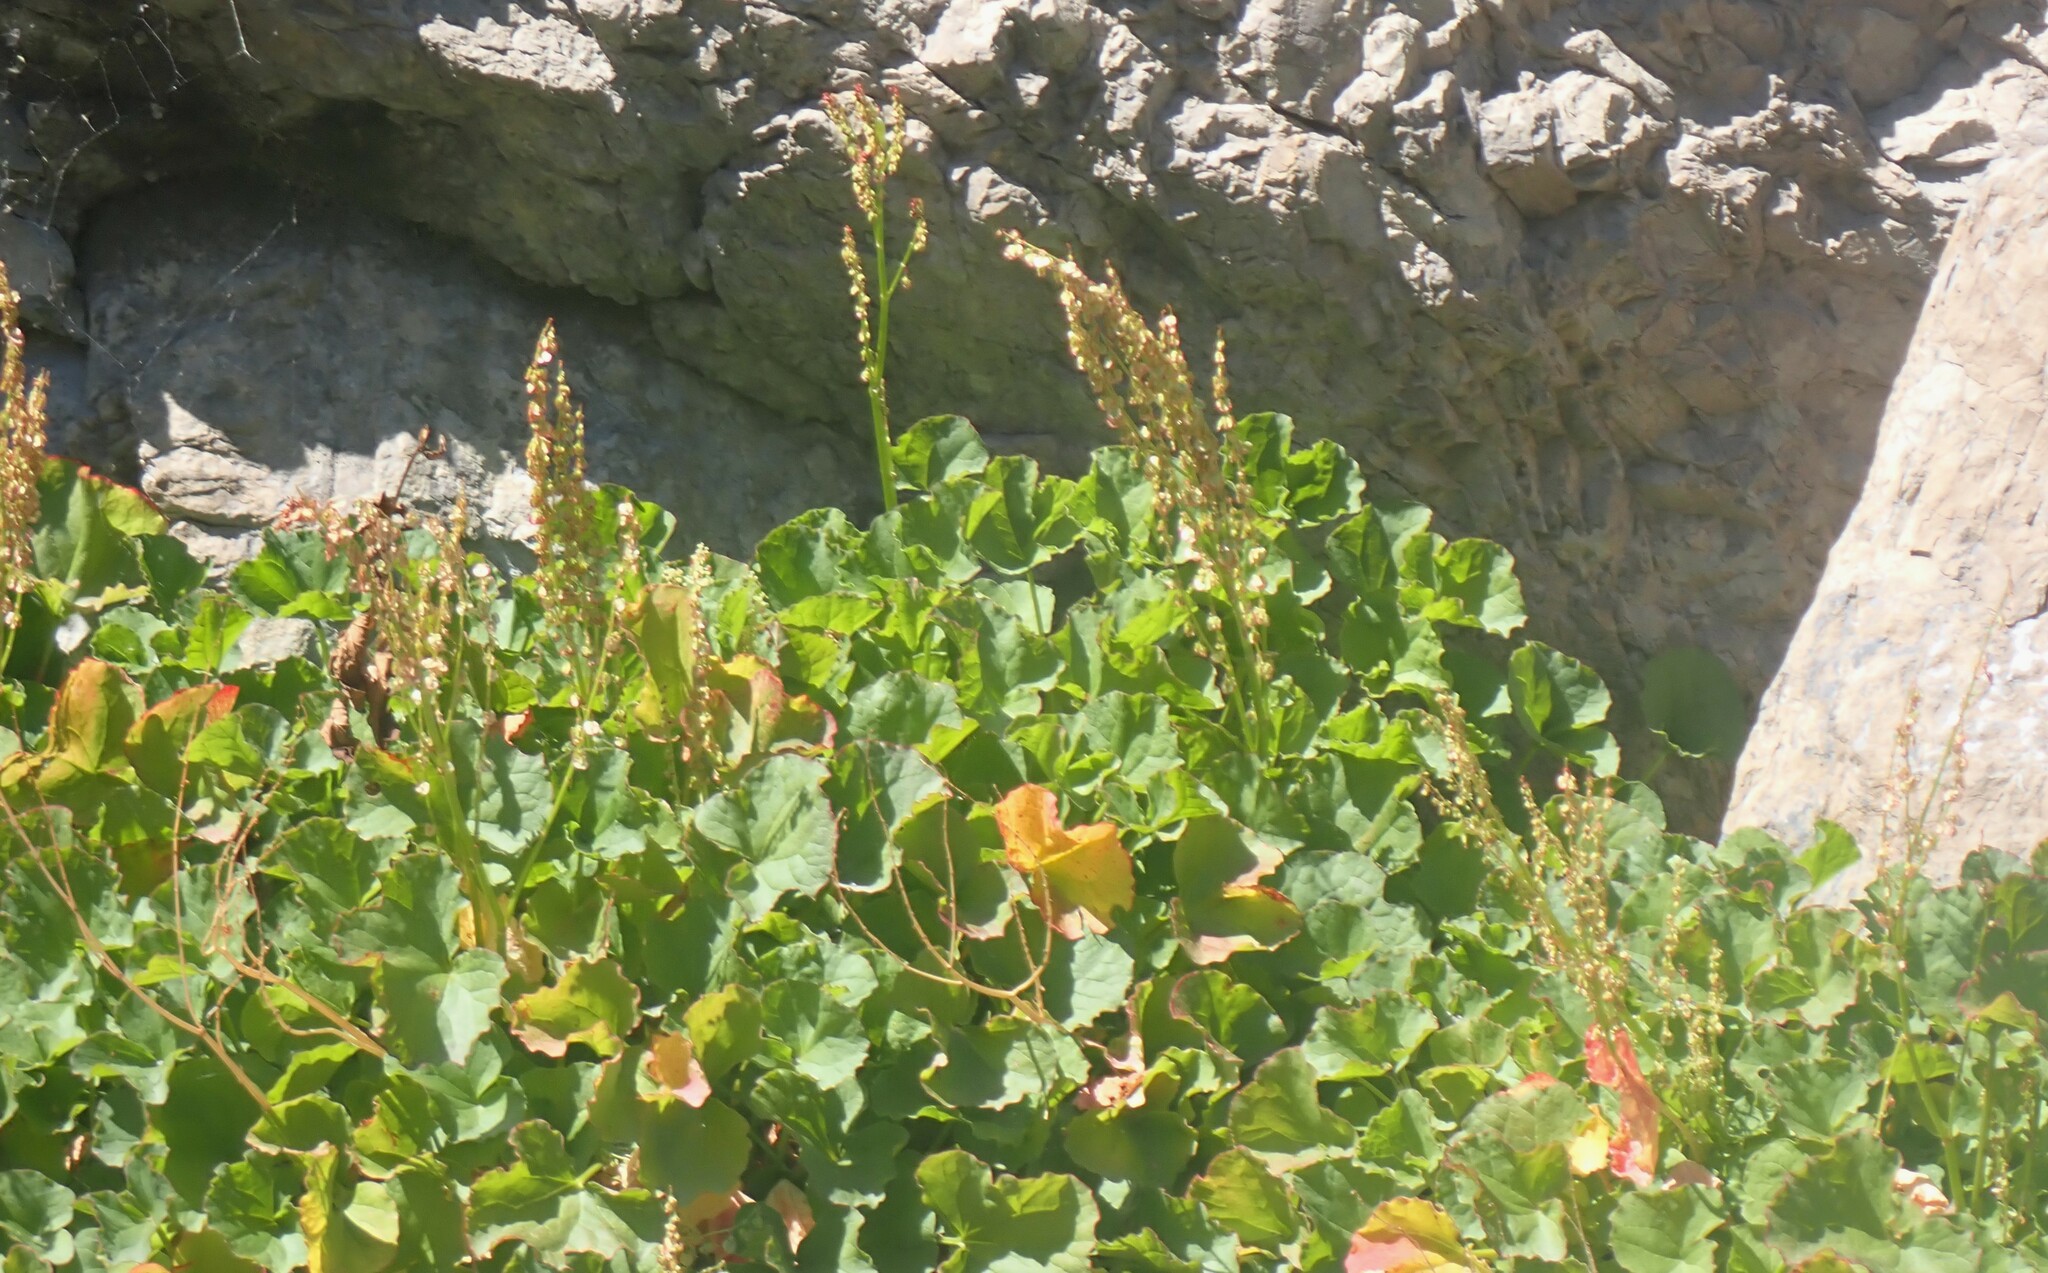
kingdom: Plantae
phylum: Tracheophyta
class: Magnoliopsida
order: Caryophyllales
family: Polygonaceae
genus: Oxyria
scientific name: Oxyria digyna
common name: Alpine mountain-sorrel
